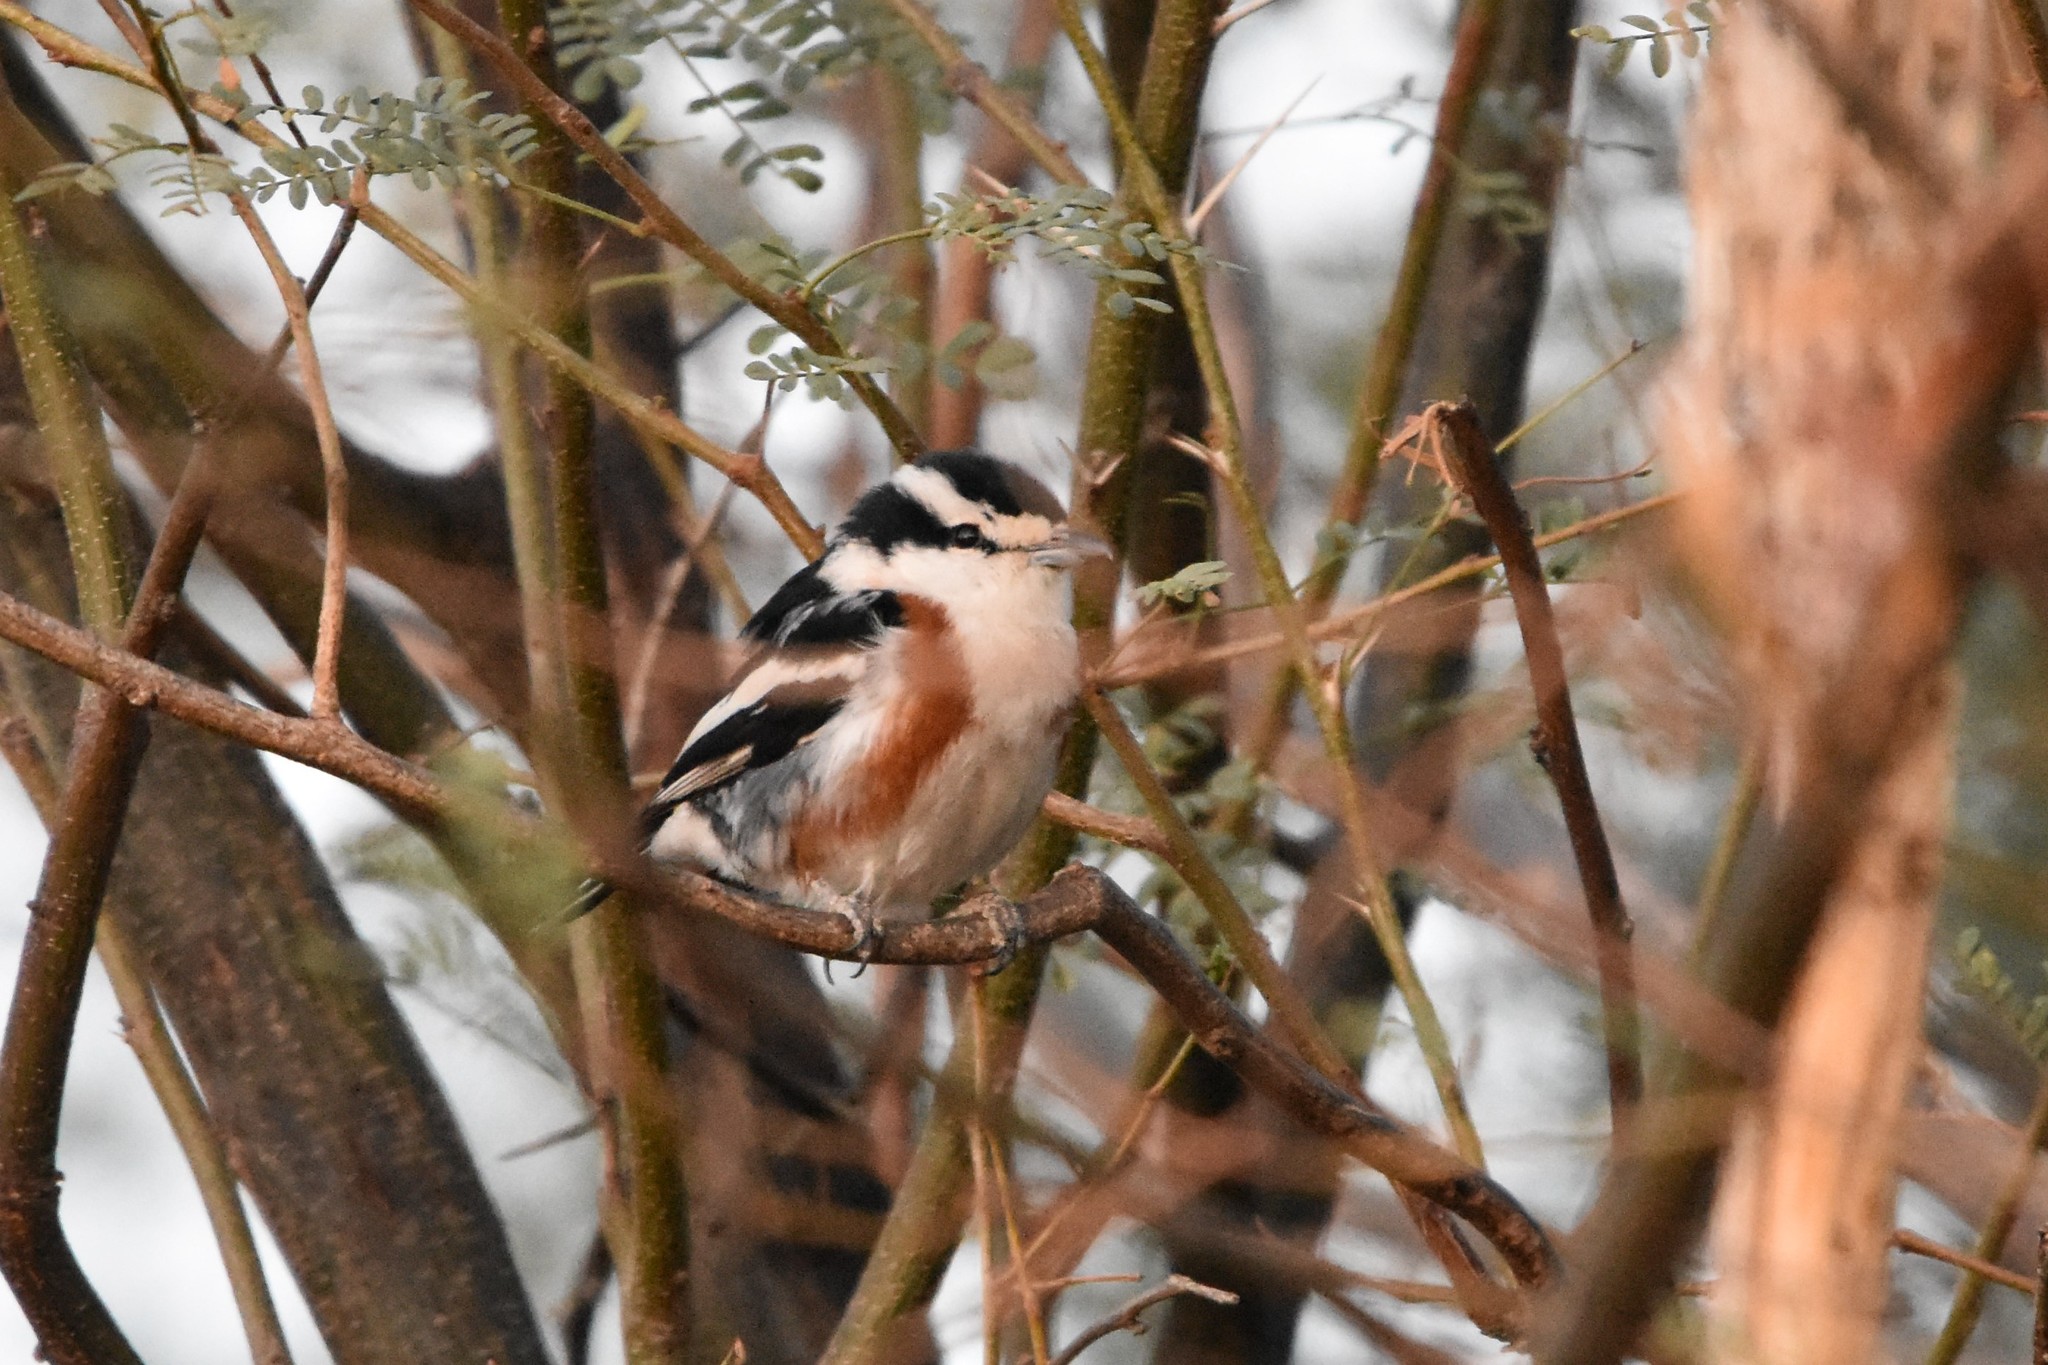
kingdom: Animalia
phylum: Chordata
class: Aves
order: Passeriformes
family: Malaconotidae
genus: Nilaus
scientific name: Nilaus afer
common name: Brubru
